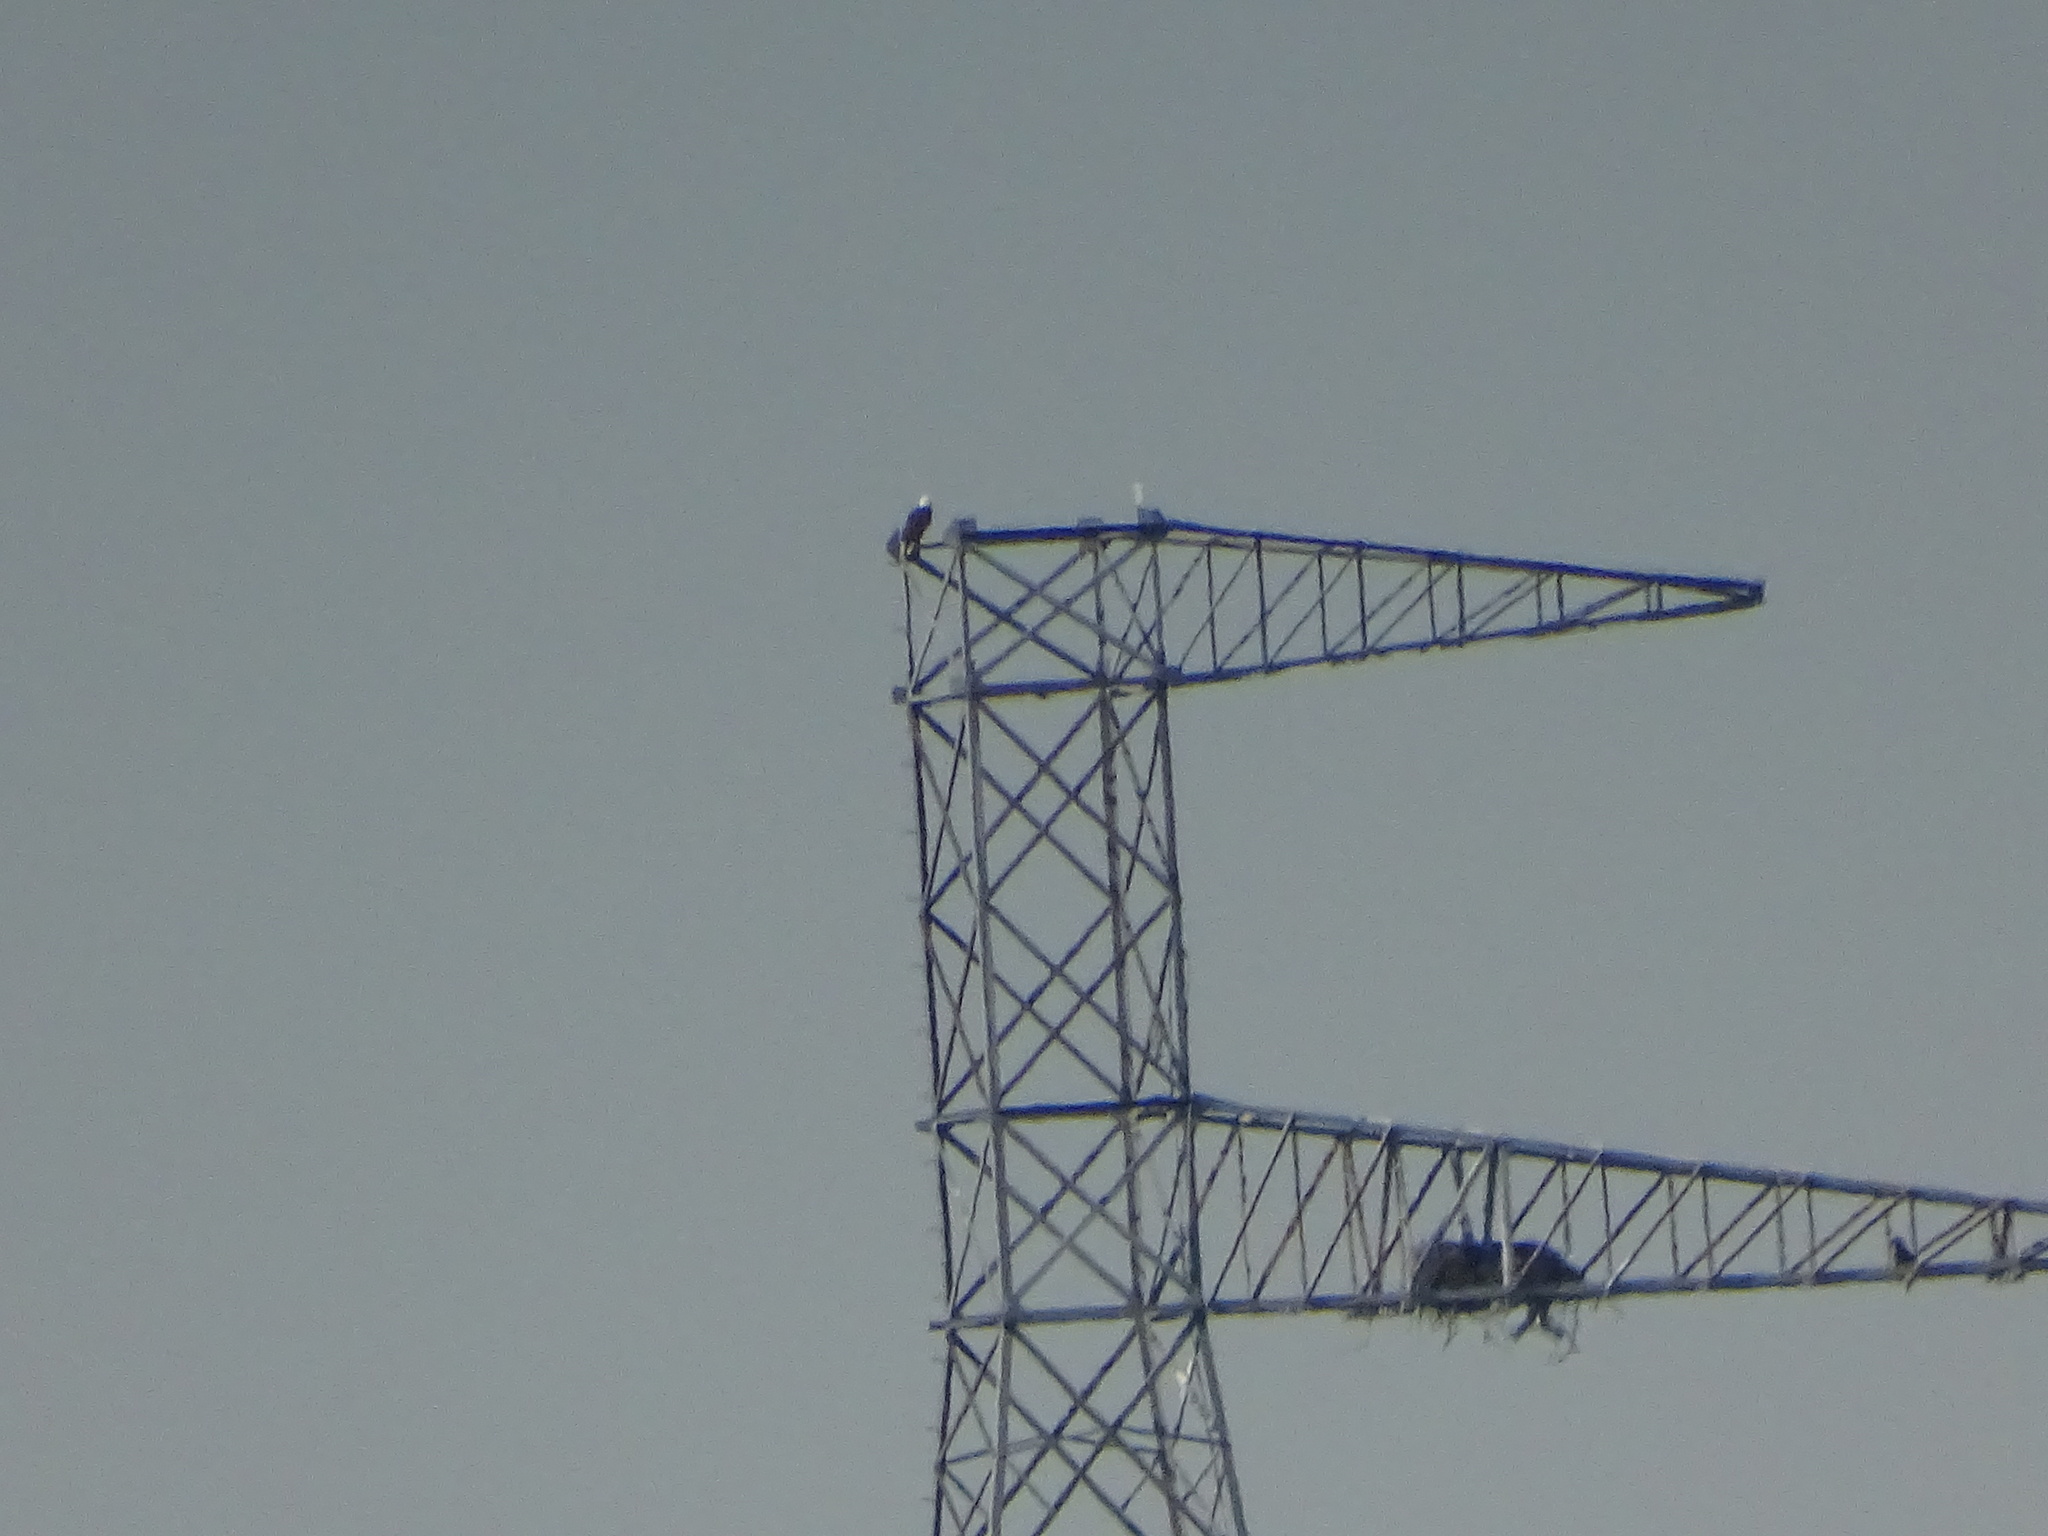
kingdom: Animalia
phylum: Chordata
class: Aves
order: Accipitriformes
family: Accipitridae
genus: Haliaeetus
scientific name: Haliaeetus leucocephalus
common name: Bald eagle
